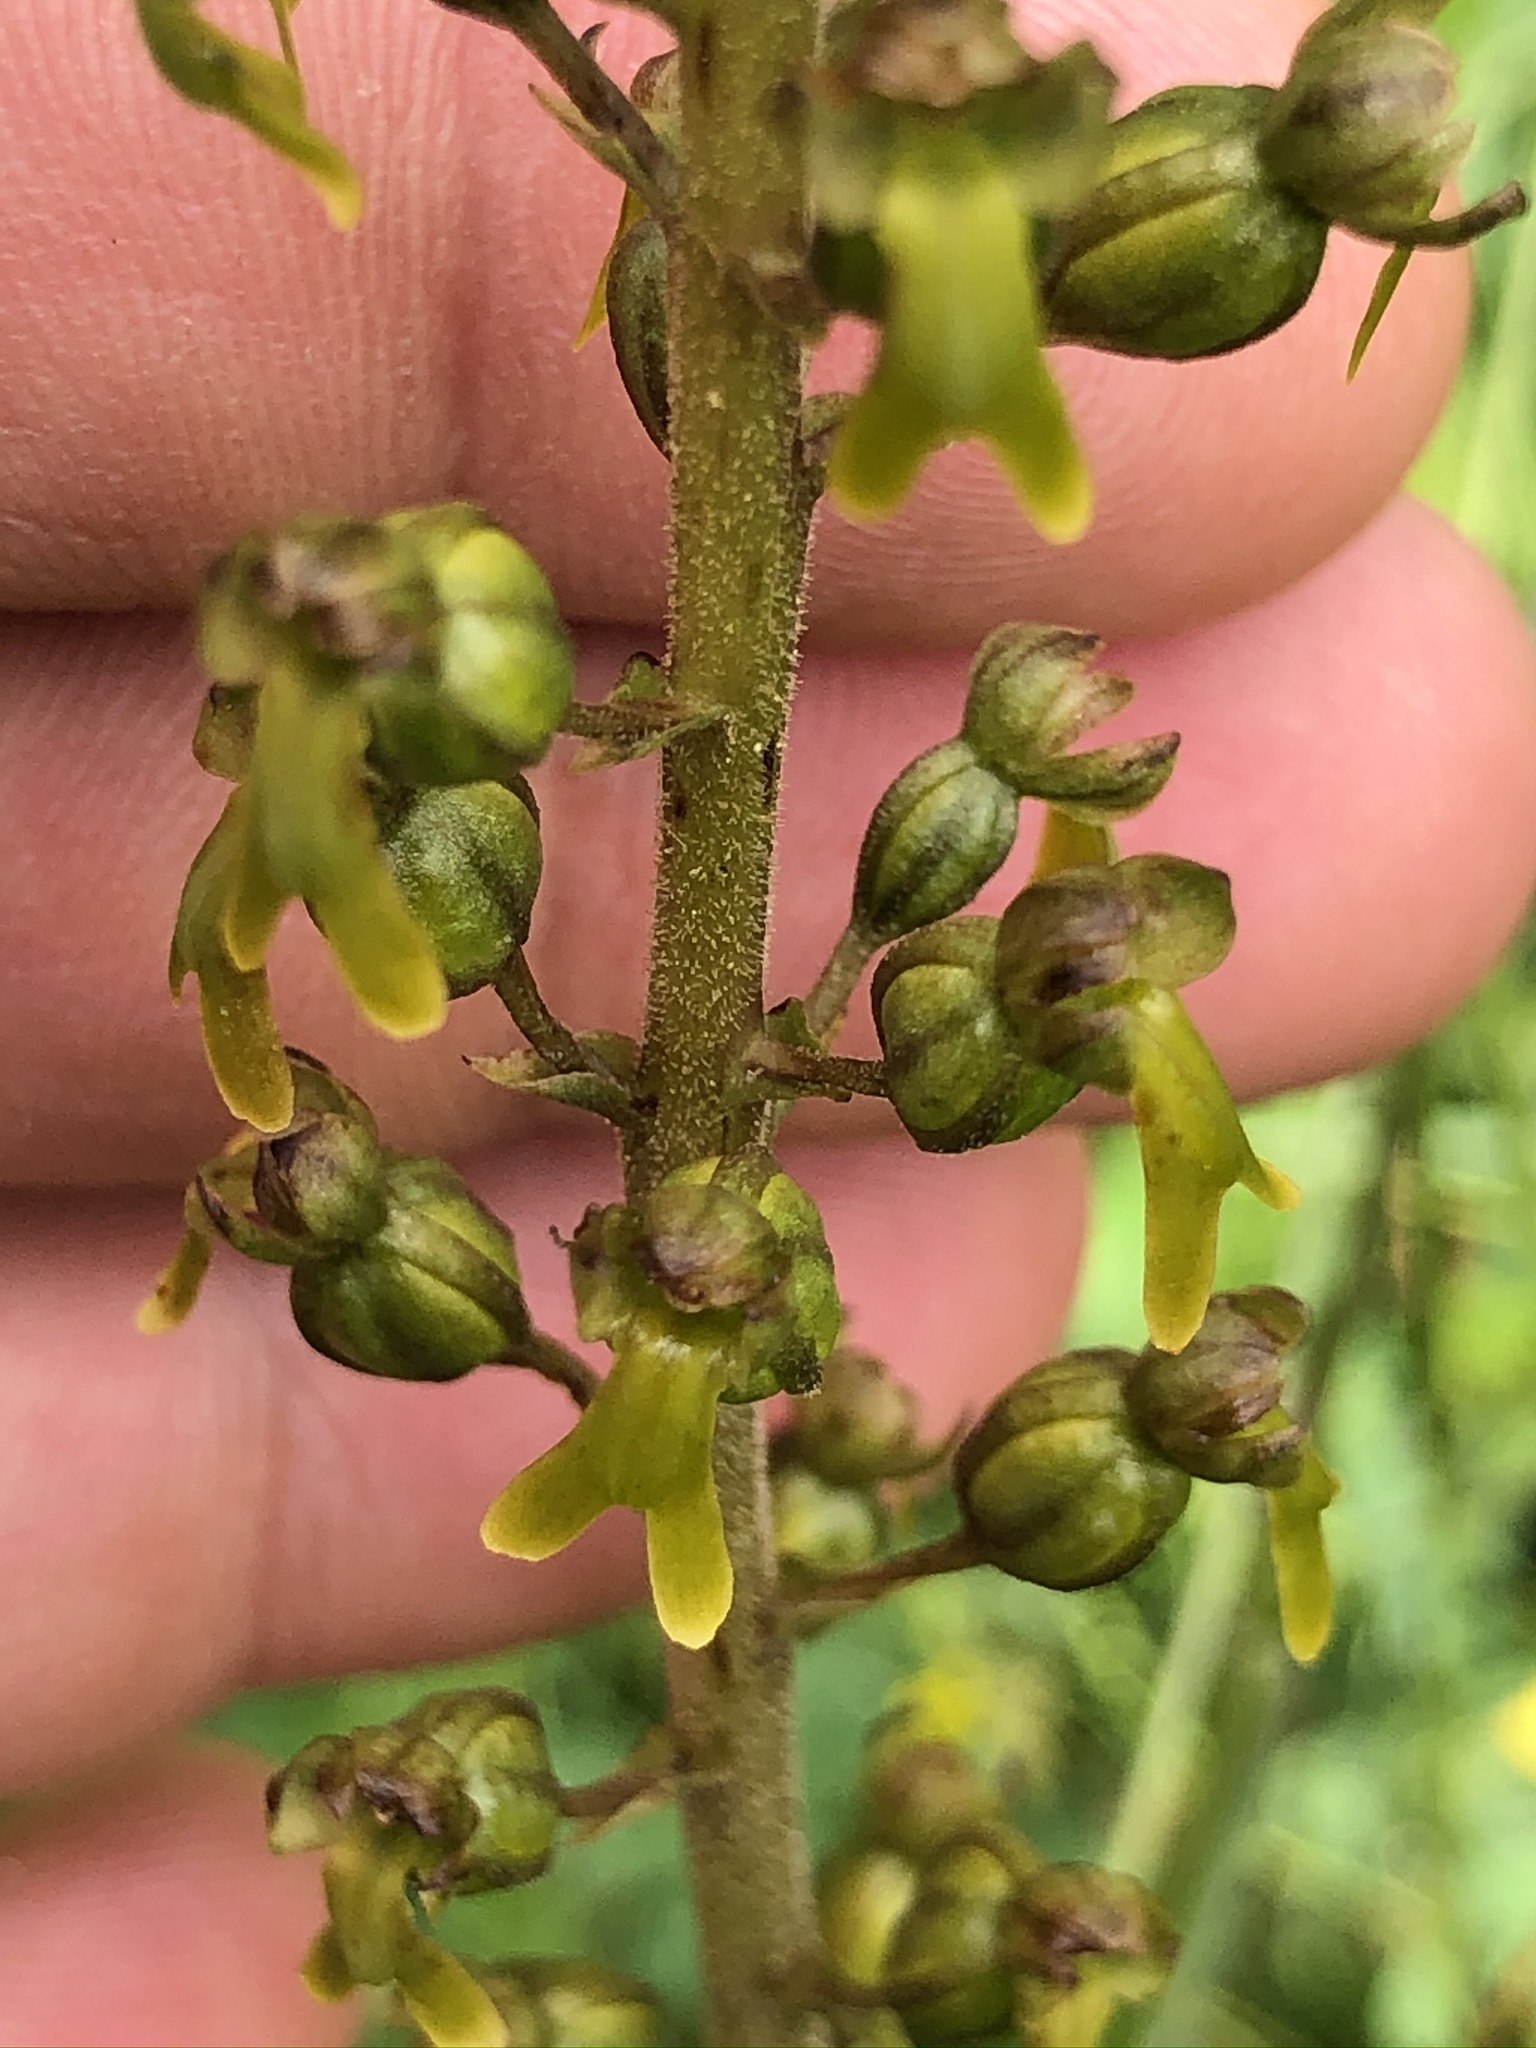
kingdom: Plantae
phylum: Tracheophyta
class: Liliopsida
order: Asparagales
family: Orchidaceae
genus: Neottia
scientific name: Neottia ovata
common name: Common twayblade
